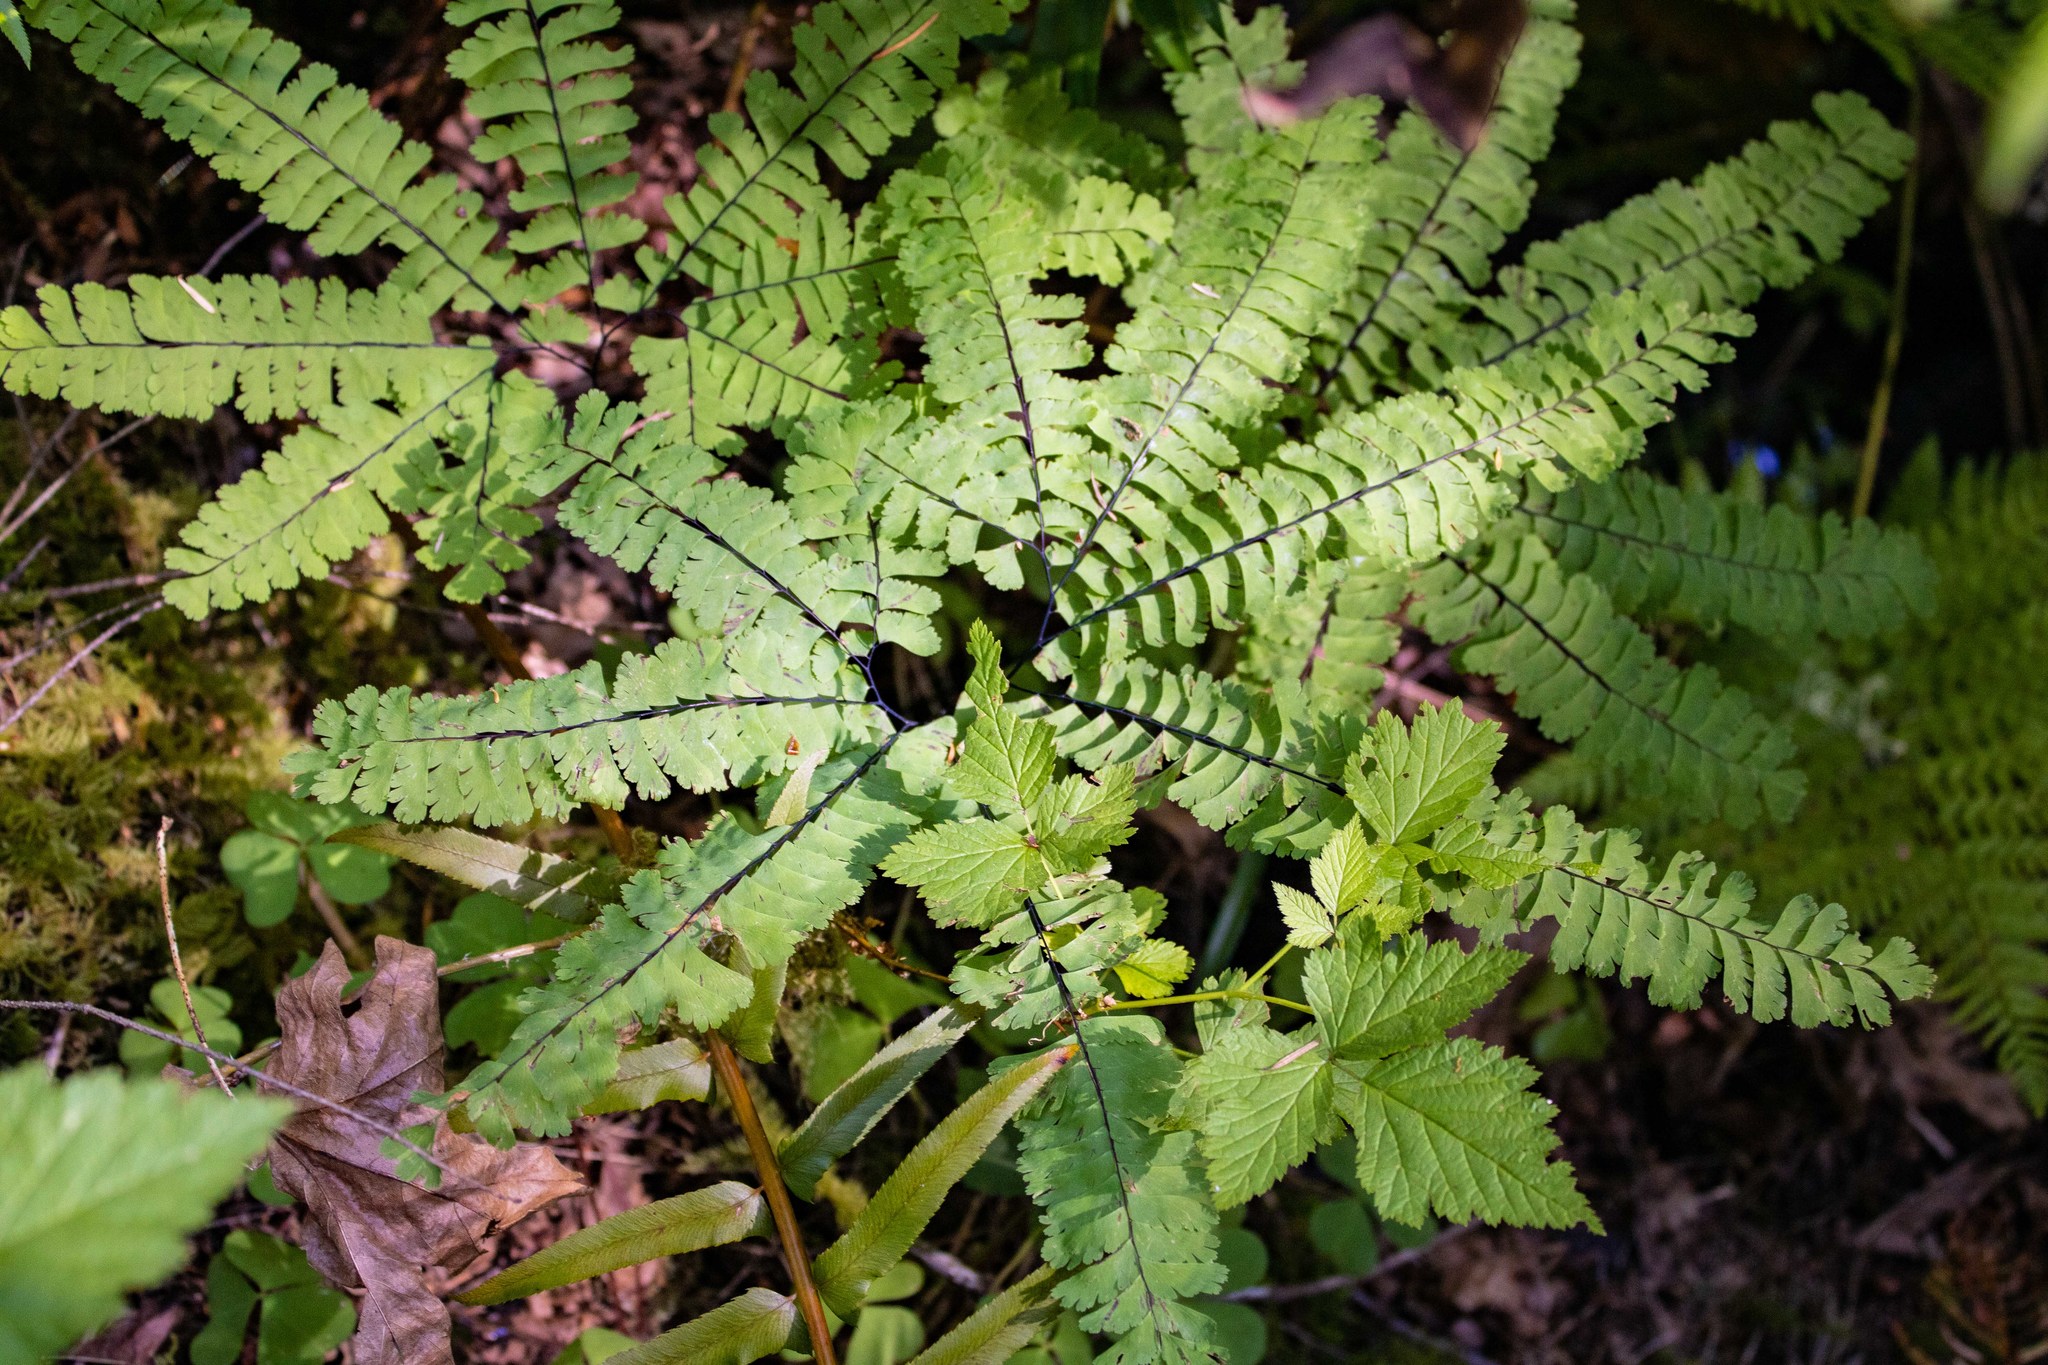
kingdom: Plantae
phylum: Tracheophyta
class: Polypodiopsida
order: Polypodiales
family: Pteridaceae
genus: Adiantum
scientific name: Adiantum aleuticum
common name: Aleutian maidenhair fern
